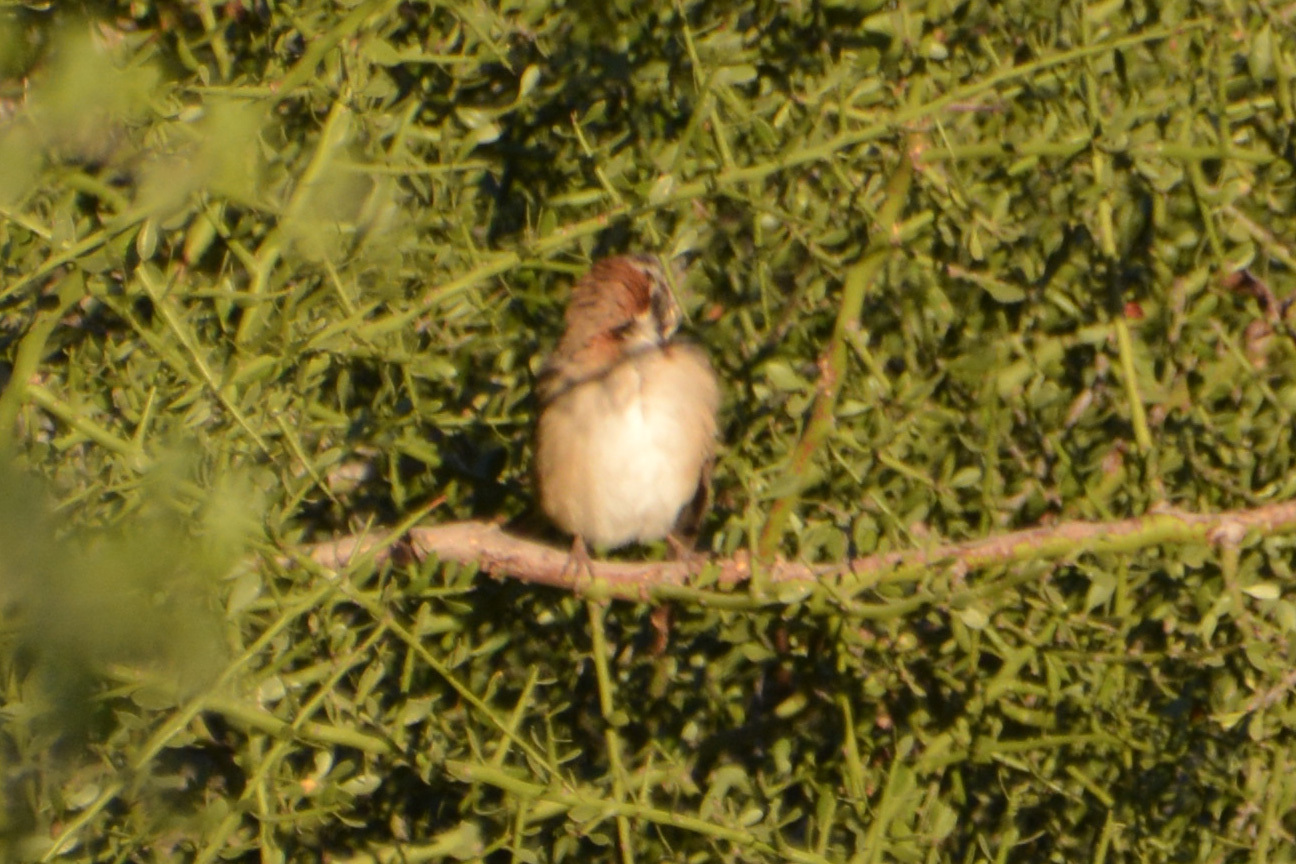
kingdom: Animalia
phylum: Chordata
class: Aves
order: Passeriformes
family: Passerellidae
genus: Zonotrichia
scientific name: Zonotrichia capensis
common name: Rufous-collared sparrow
